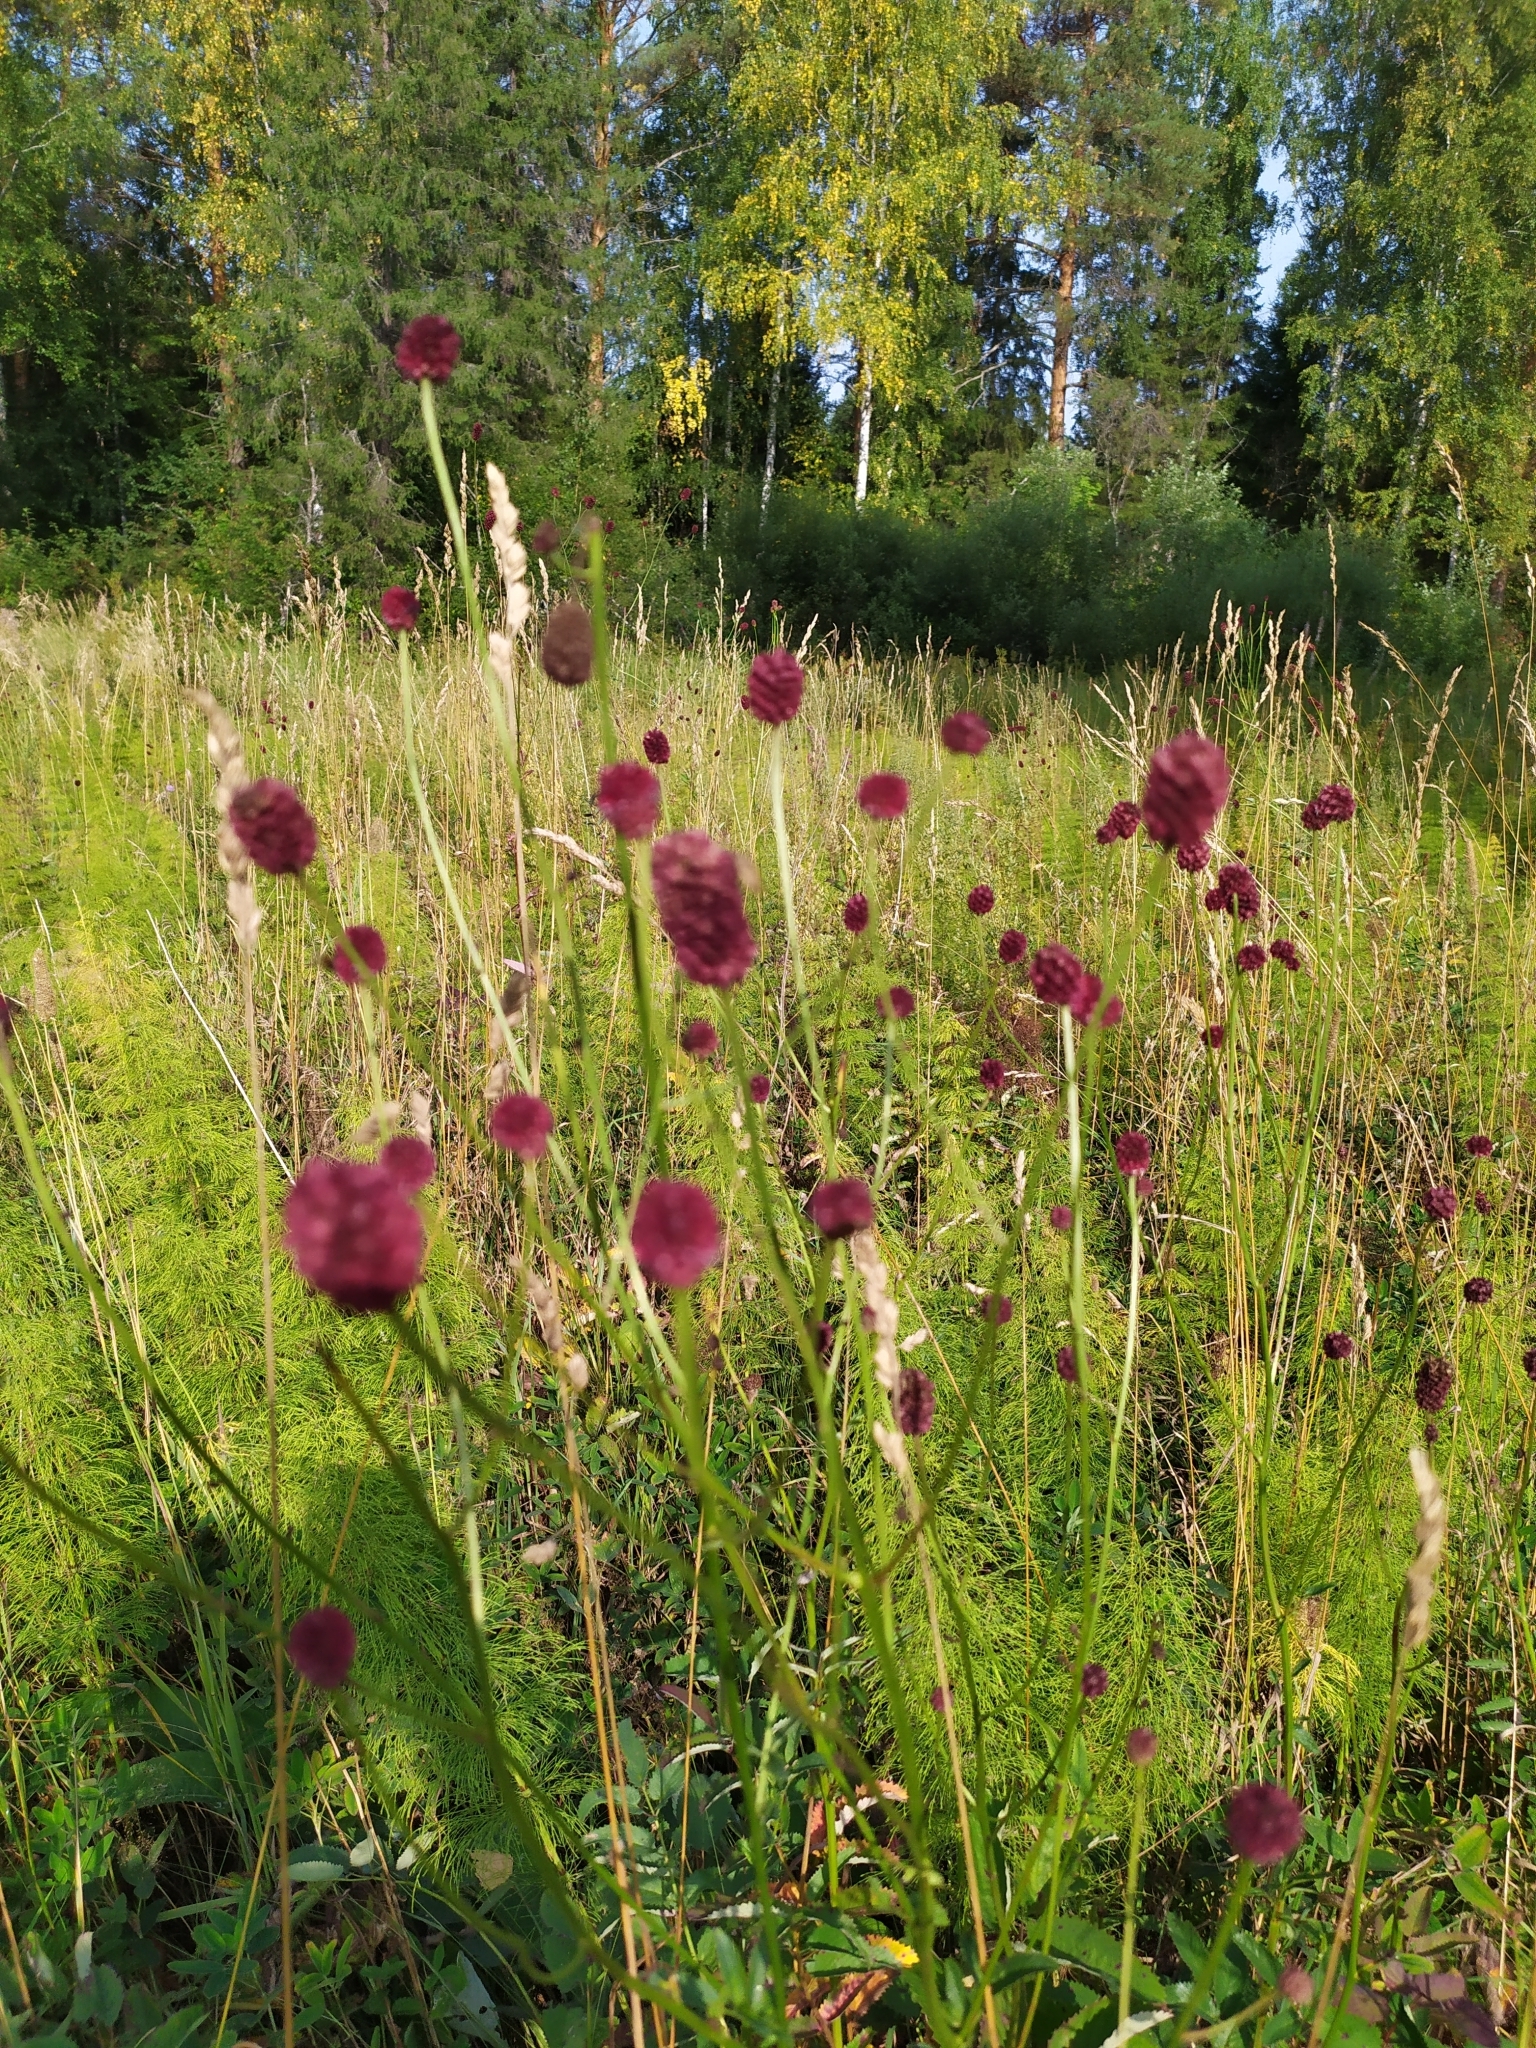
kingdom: Plantae
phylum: Tracheophyta
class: Magnoliopsida
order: Rosales
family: Rosaceae
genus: Sanguisorba
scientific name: Sanguisorba officinalis
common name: Great burnet
